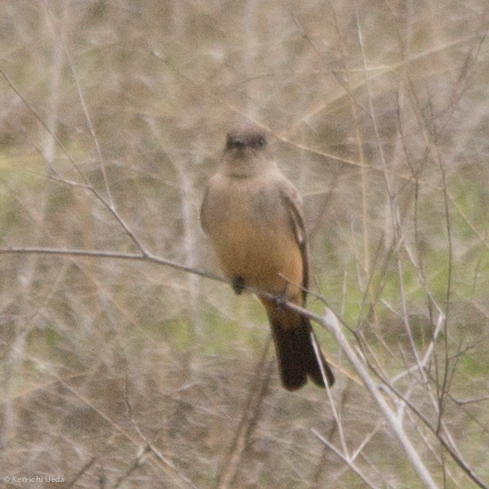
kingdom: Animalia
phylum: Chordata
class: Aves
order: Passeriformes
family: Tyrannidae
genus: Sayornis
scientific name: Sayornis saya
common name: Say's phoebe
